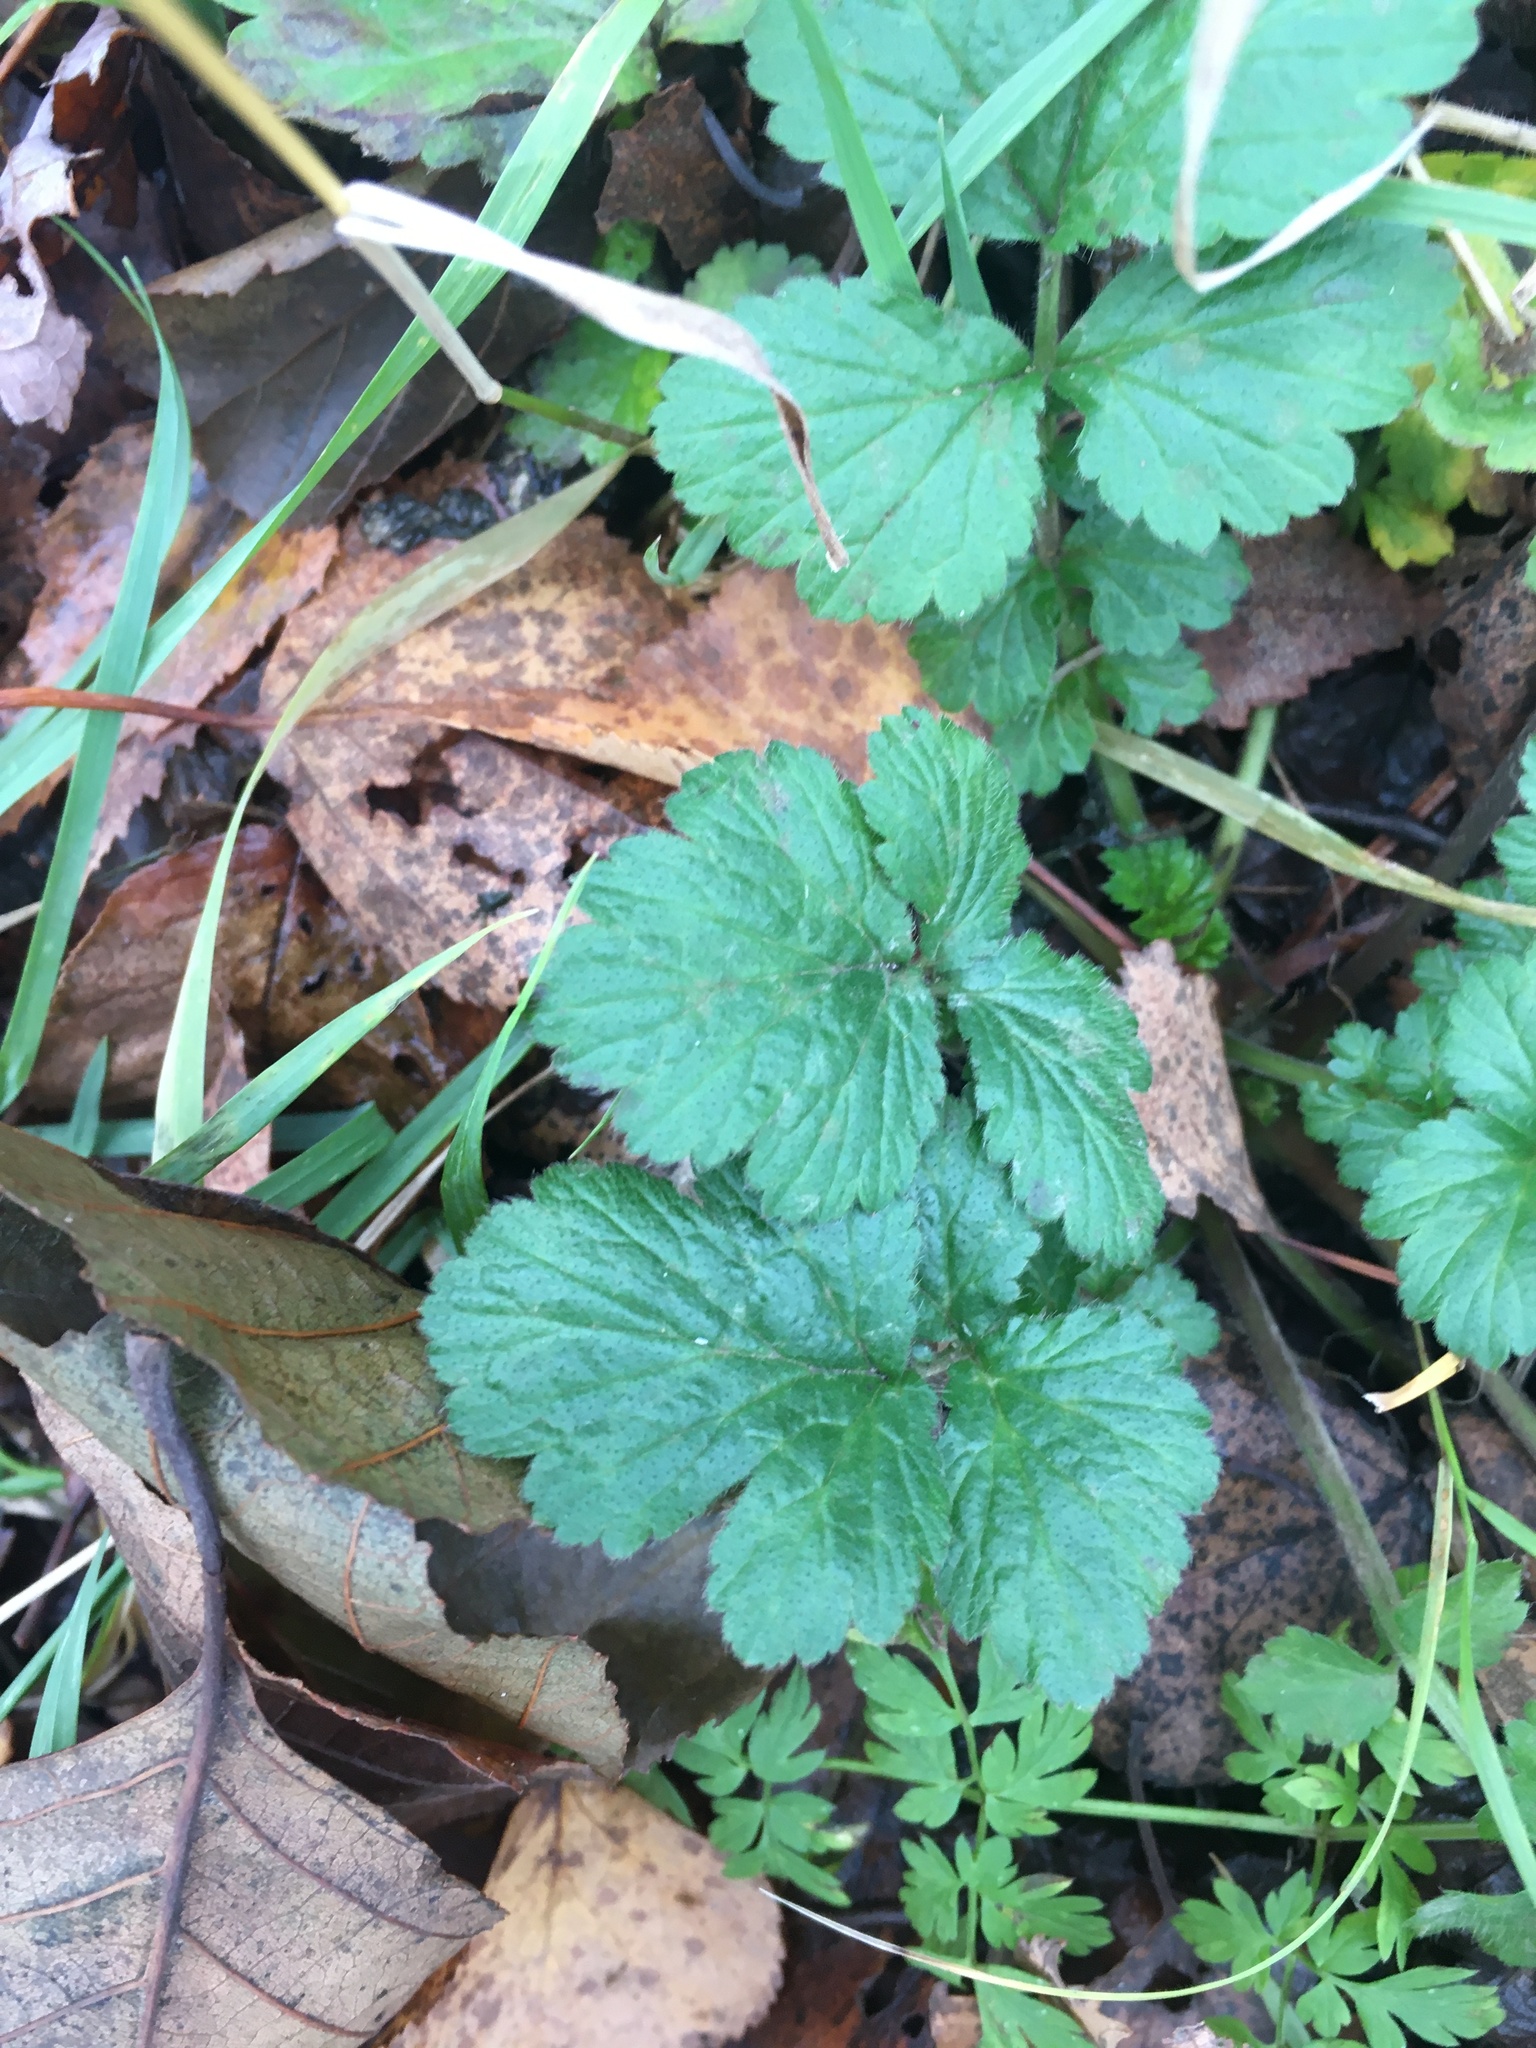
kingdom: Plantae
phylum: Tracheophyta
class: Magnoliopsida
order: Rosales
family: Rosaceae
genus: Geum
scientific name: Geum
